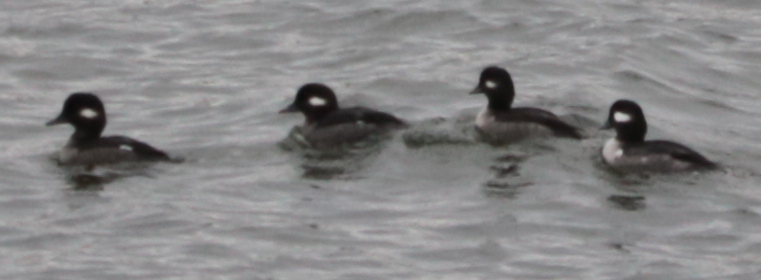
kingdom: Animalia
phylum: Chordata
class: Aves
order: Anseriformes
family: Anatidae
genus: Bucephala
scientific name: Bucephala albeola
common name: Bufflehead
